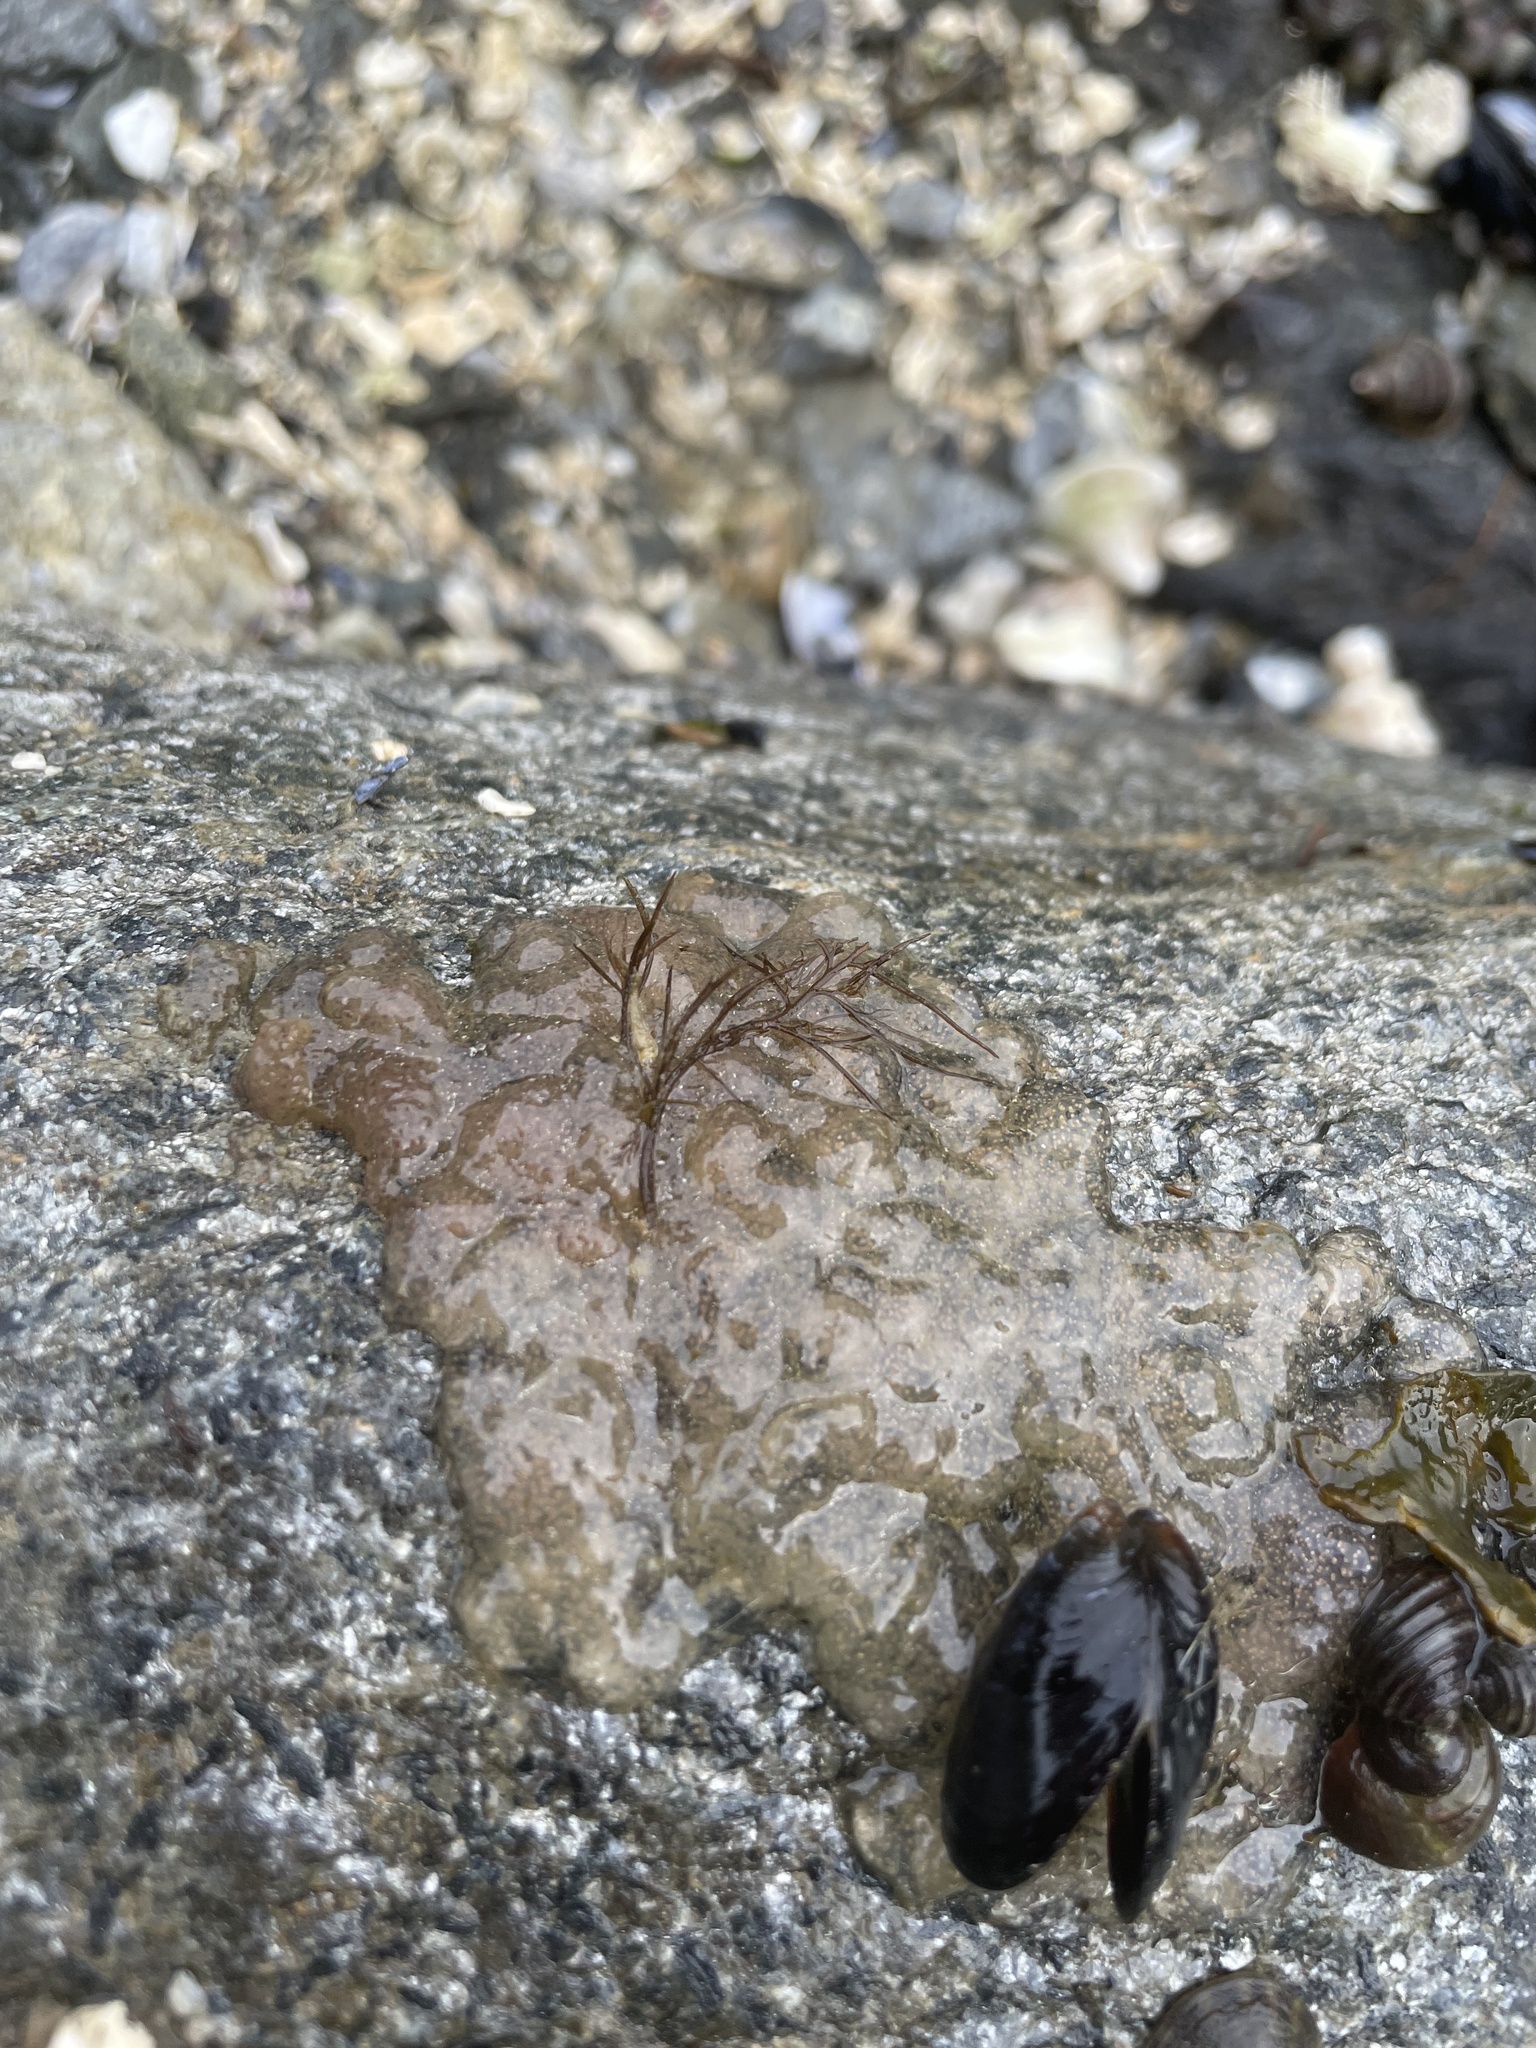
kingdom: Animalia
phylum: Mollusca
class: Gastropoda
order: Littorinimorpha
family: Littorinidae
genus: Littorina
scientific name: Littorina sitkana
